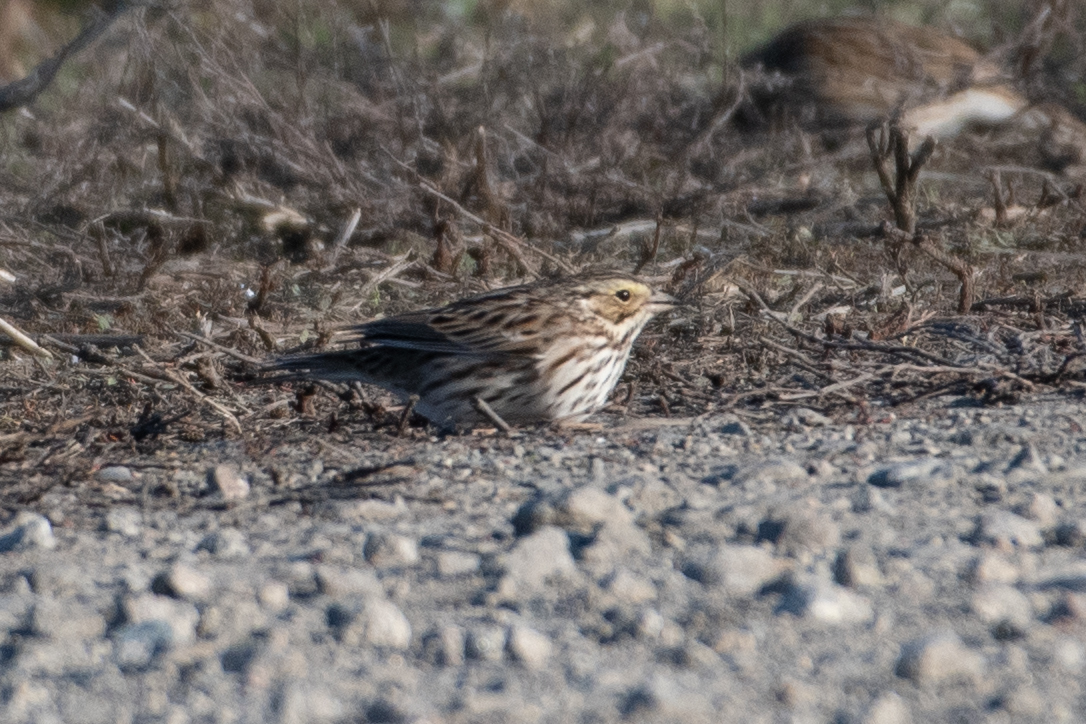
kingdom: Animalia
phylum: Chordata
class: Aves
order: Passeriformes
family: Passerellidae
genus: Passerculus
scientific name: Passerculus sandwichensis
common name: Savannah sparrow
